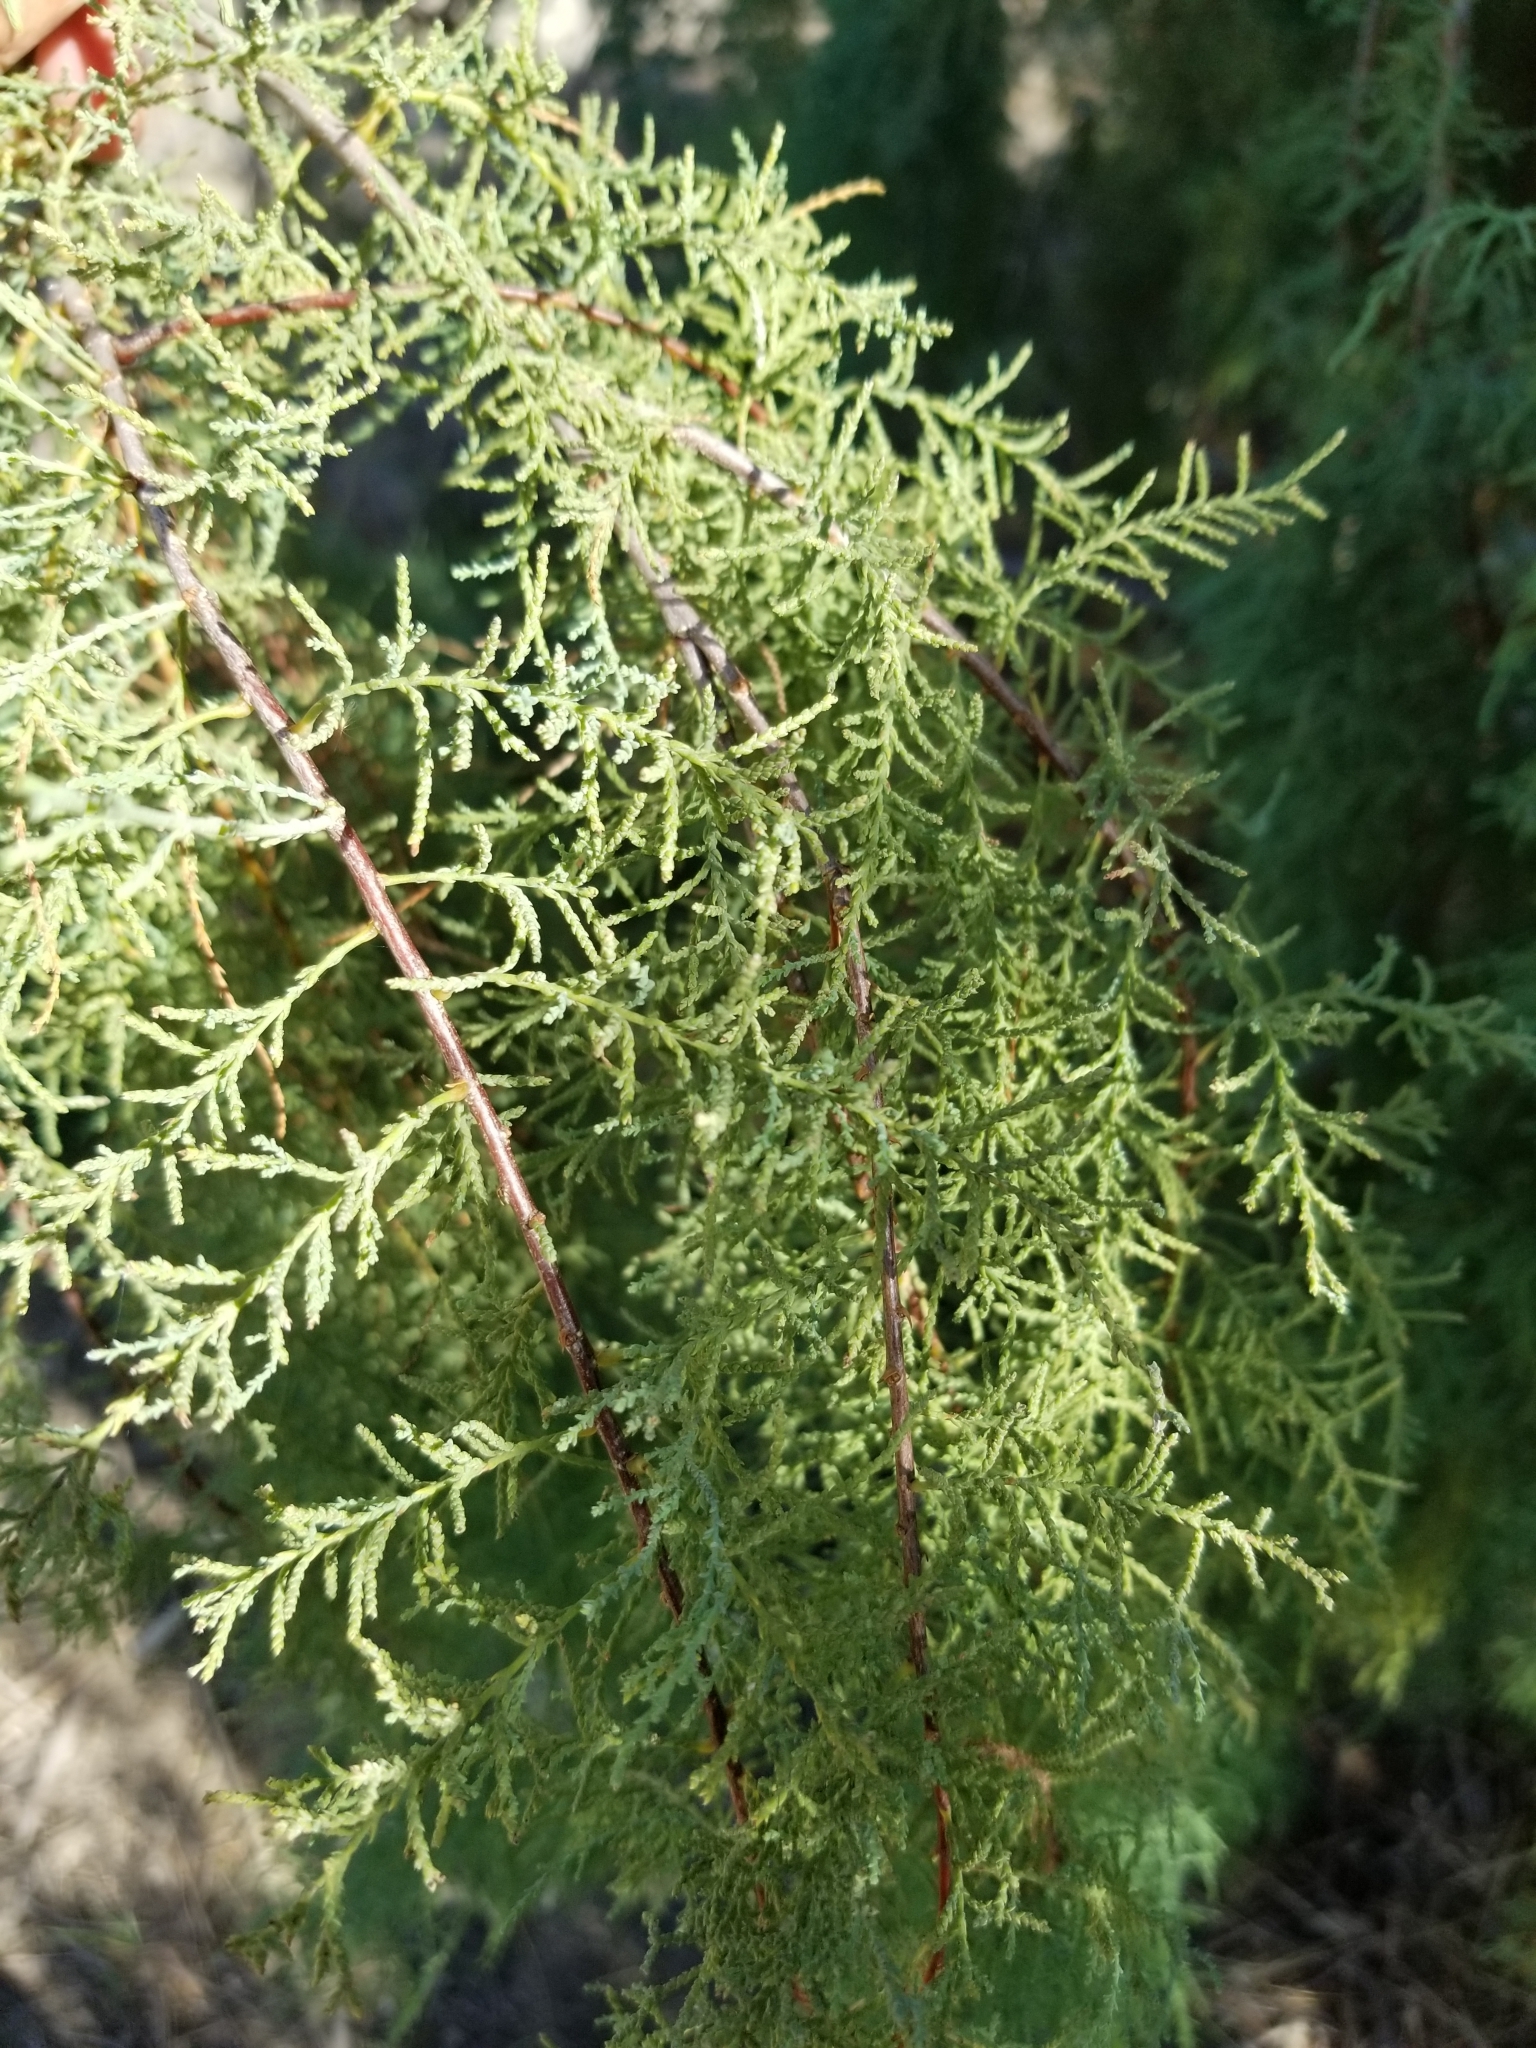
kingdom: Plantae
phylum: Tracheophyta
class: Magnoliopsida
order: Caryophyllales
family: Tamaricaceae
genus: Tamarix
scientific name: Tamarix ramosissima
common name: Pink tamarisk
